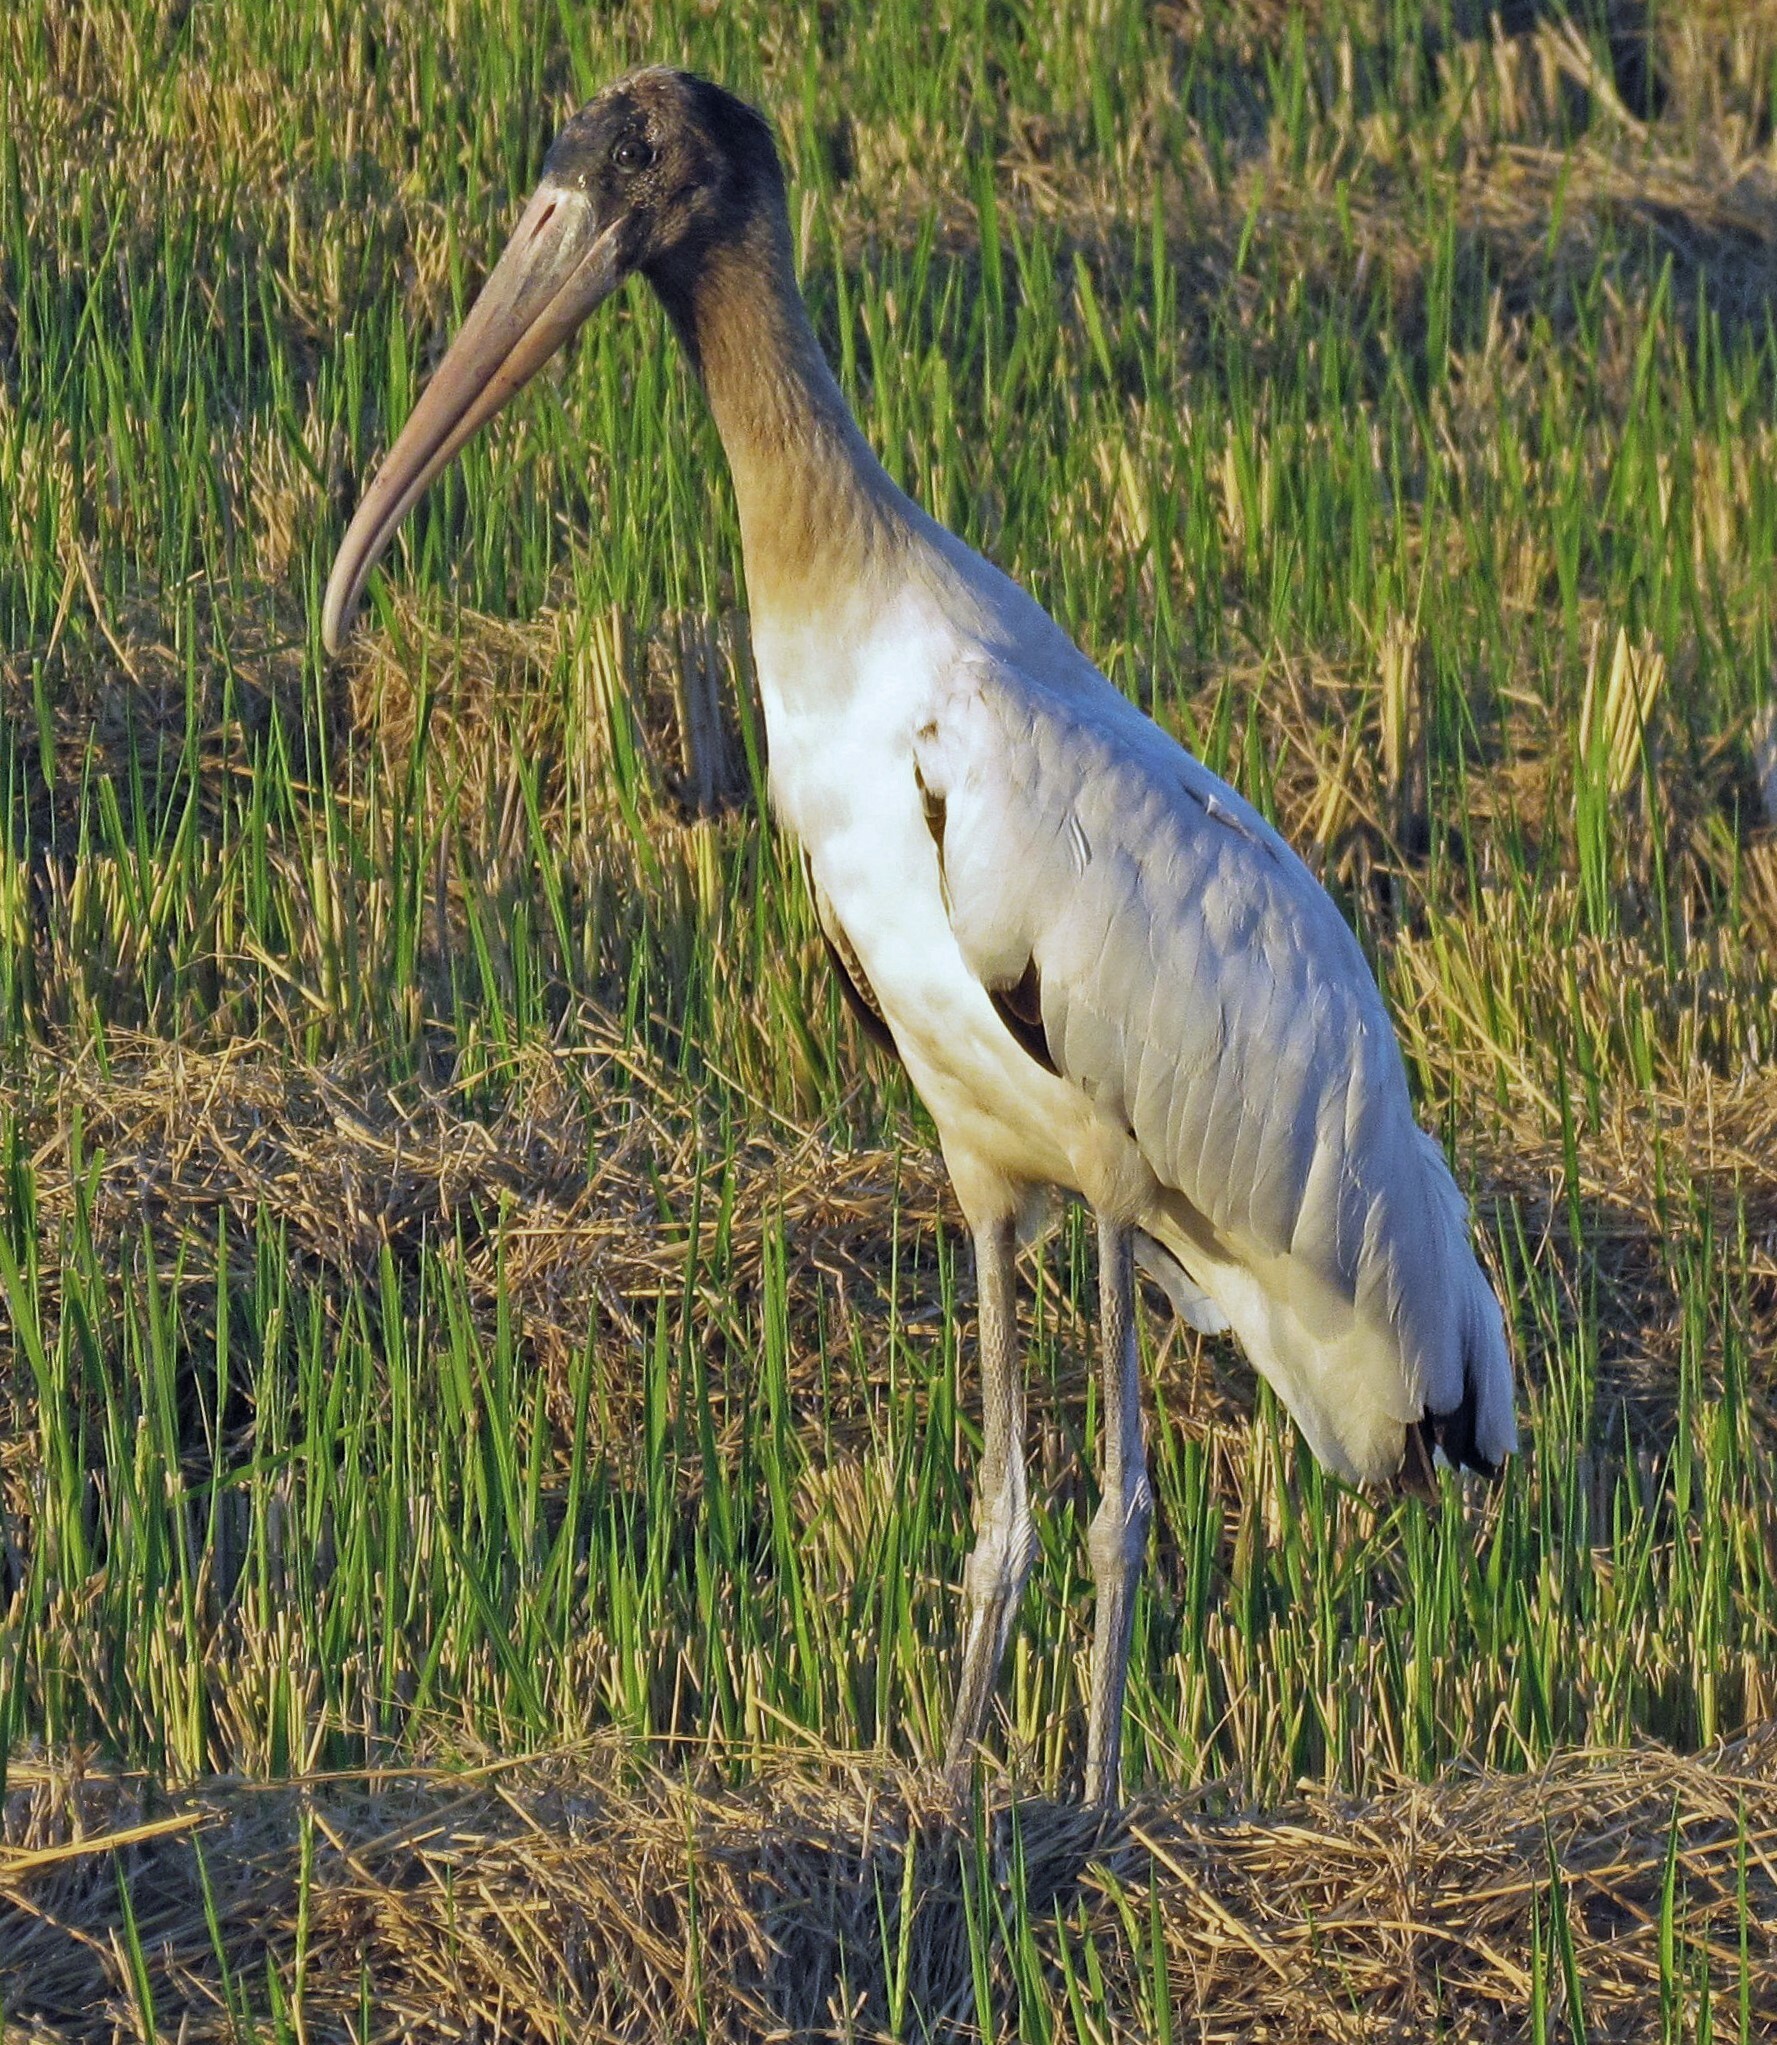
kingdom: Animalia
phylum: Chordata
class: Aves
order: Ciconiiformes
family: Ciconiidae
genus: Mycteria
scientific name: Mycteria americana
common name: Wood stork
